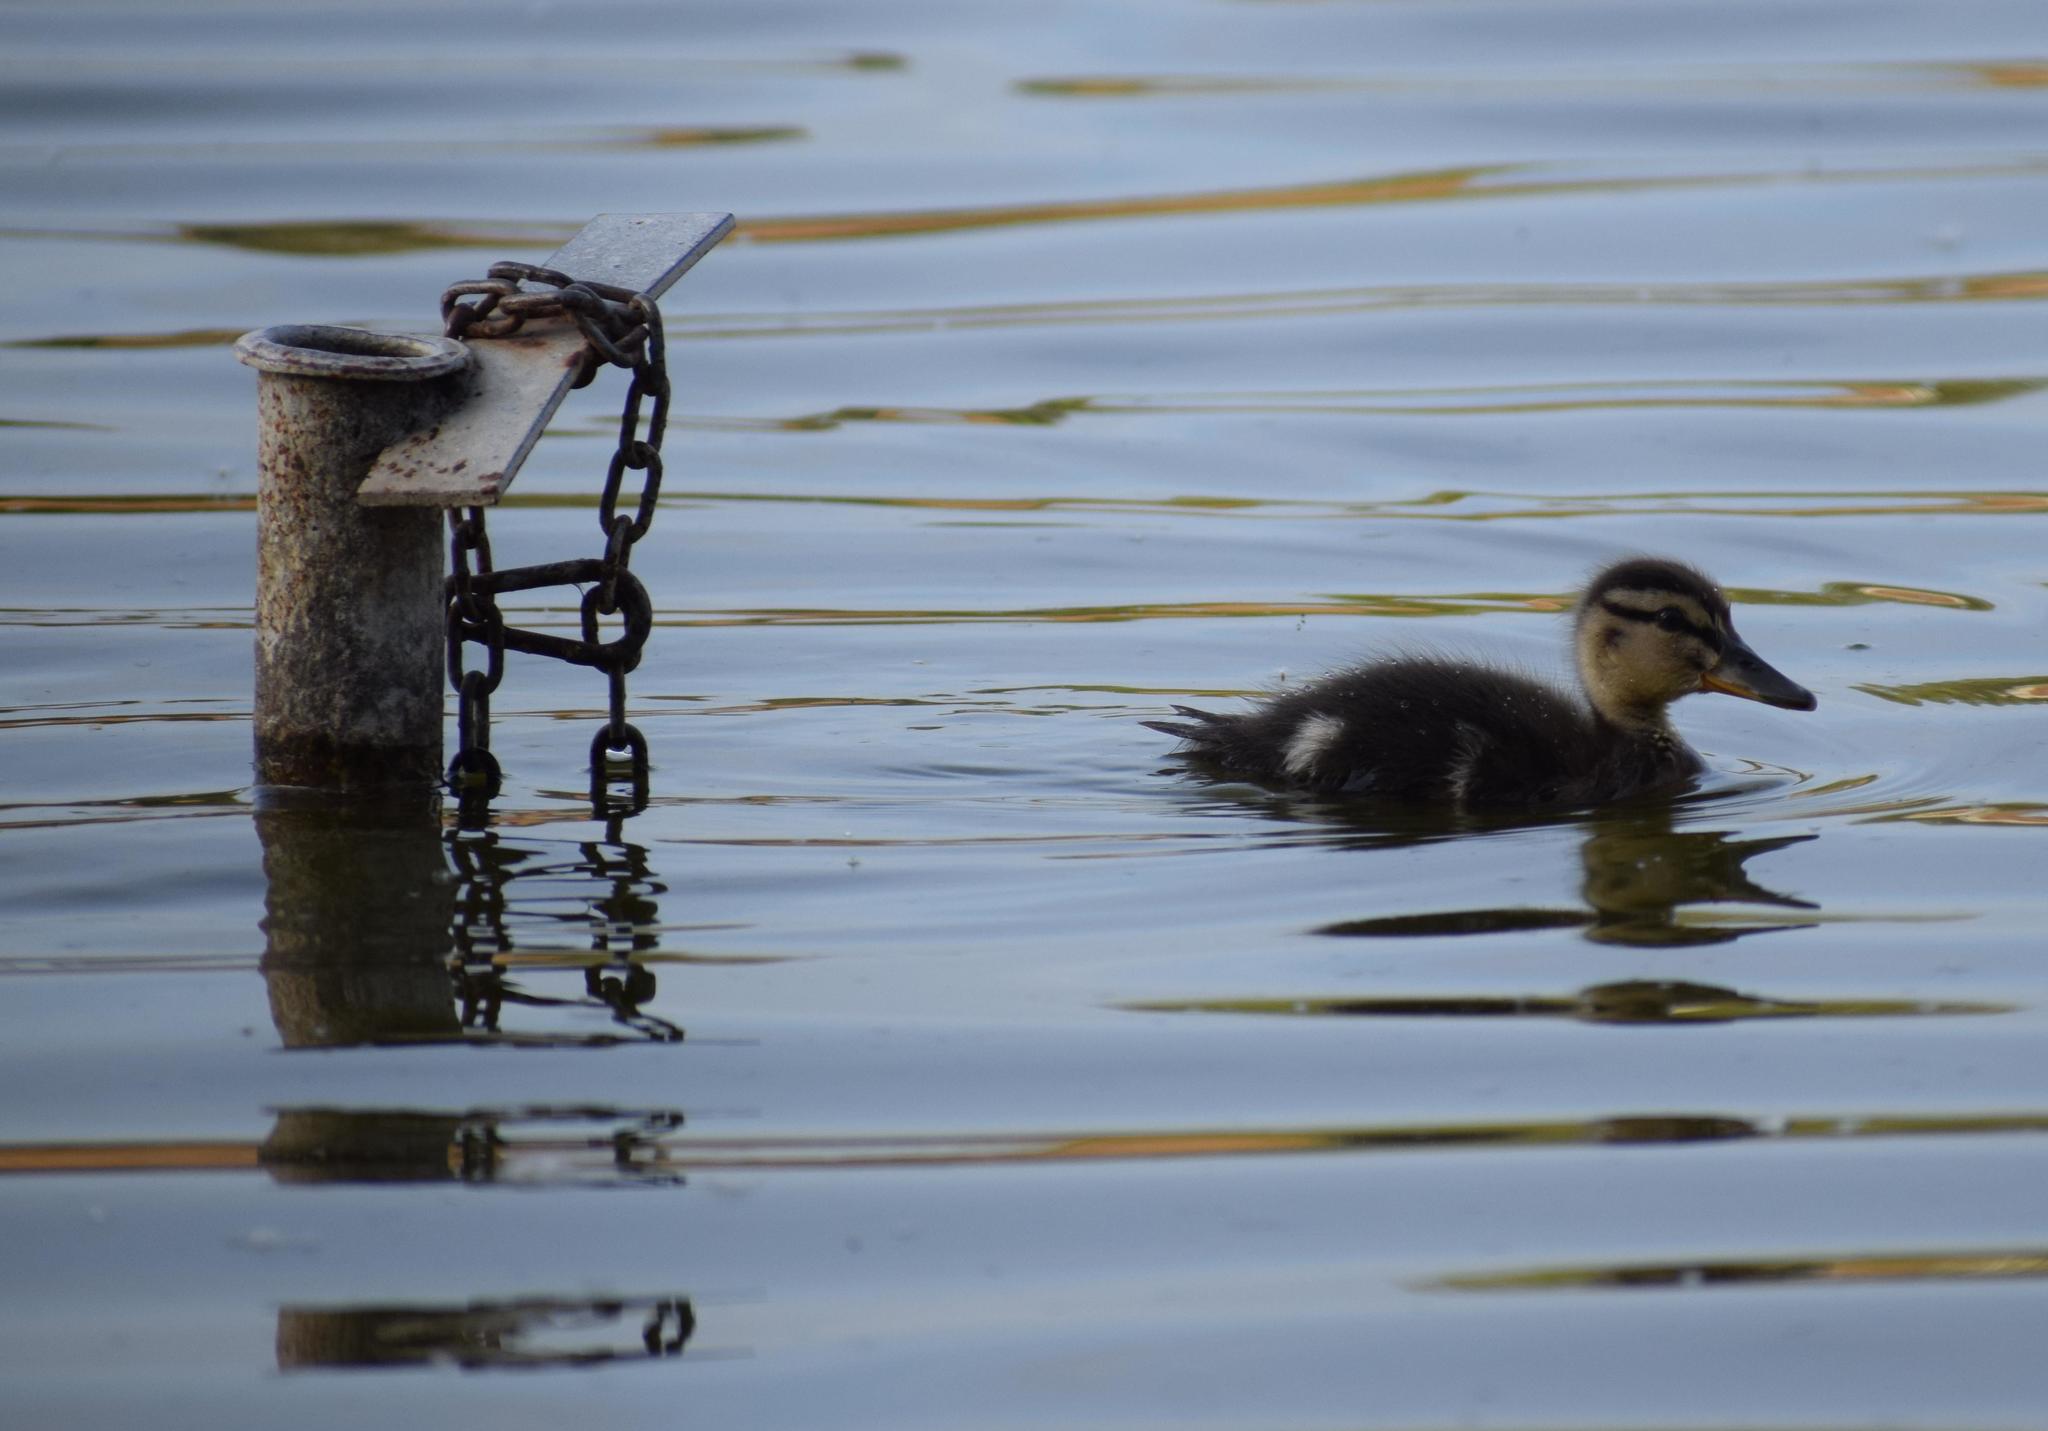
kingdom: Animalia
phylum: Chordata
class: Aves
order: Anseriformes
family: Anatidae
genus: Anas
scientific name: Anas platyrhynchos
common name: Mallard
